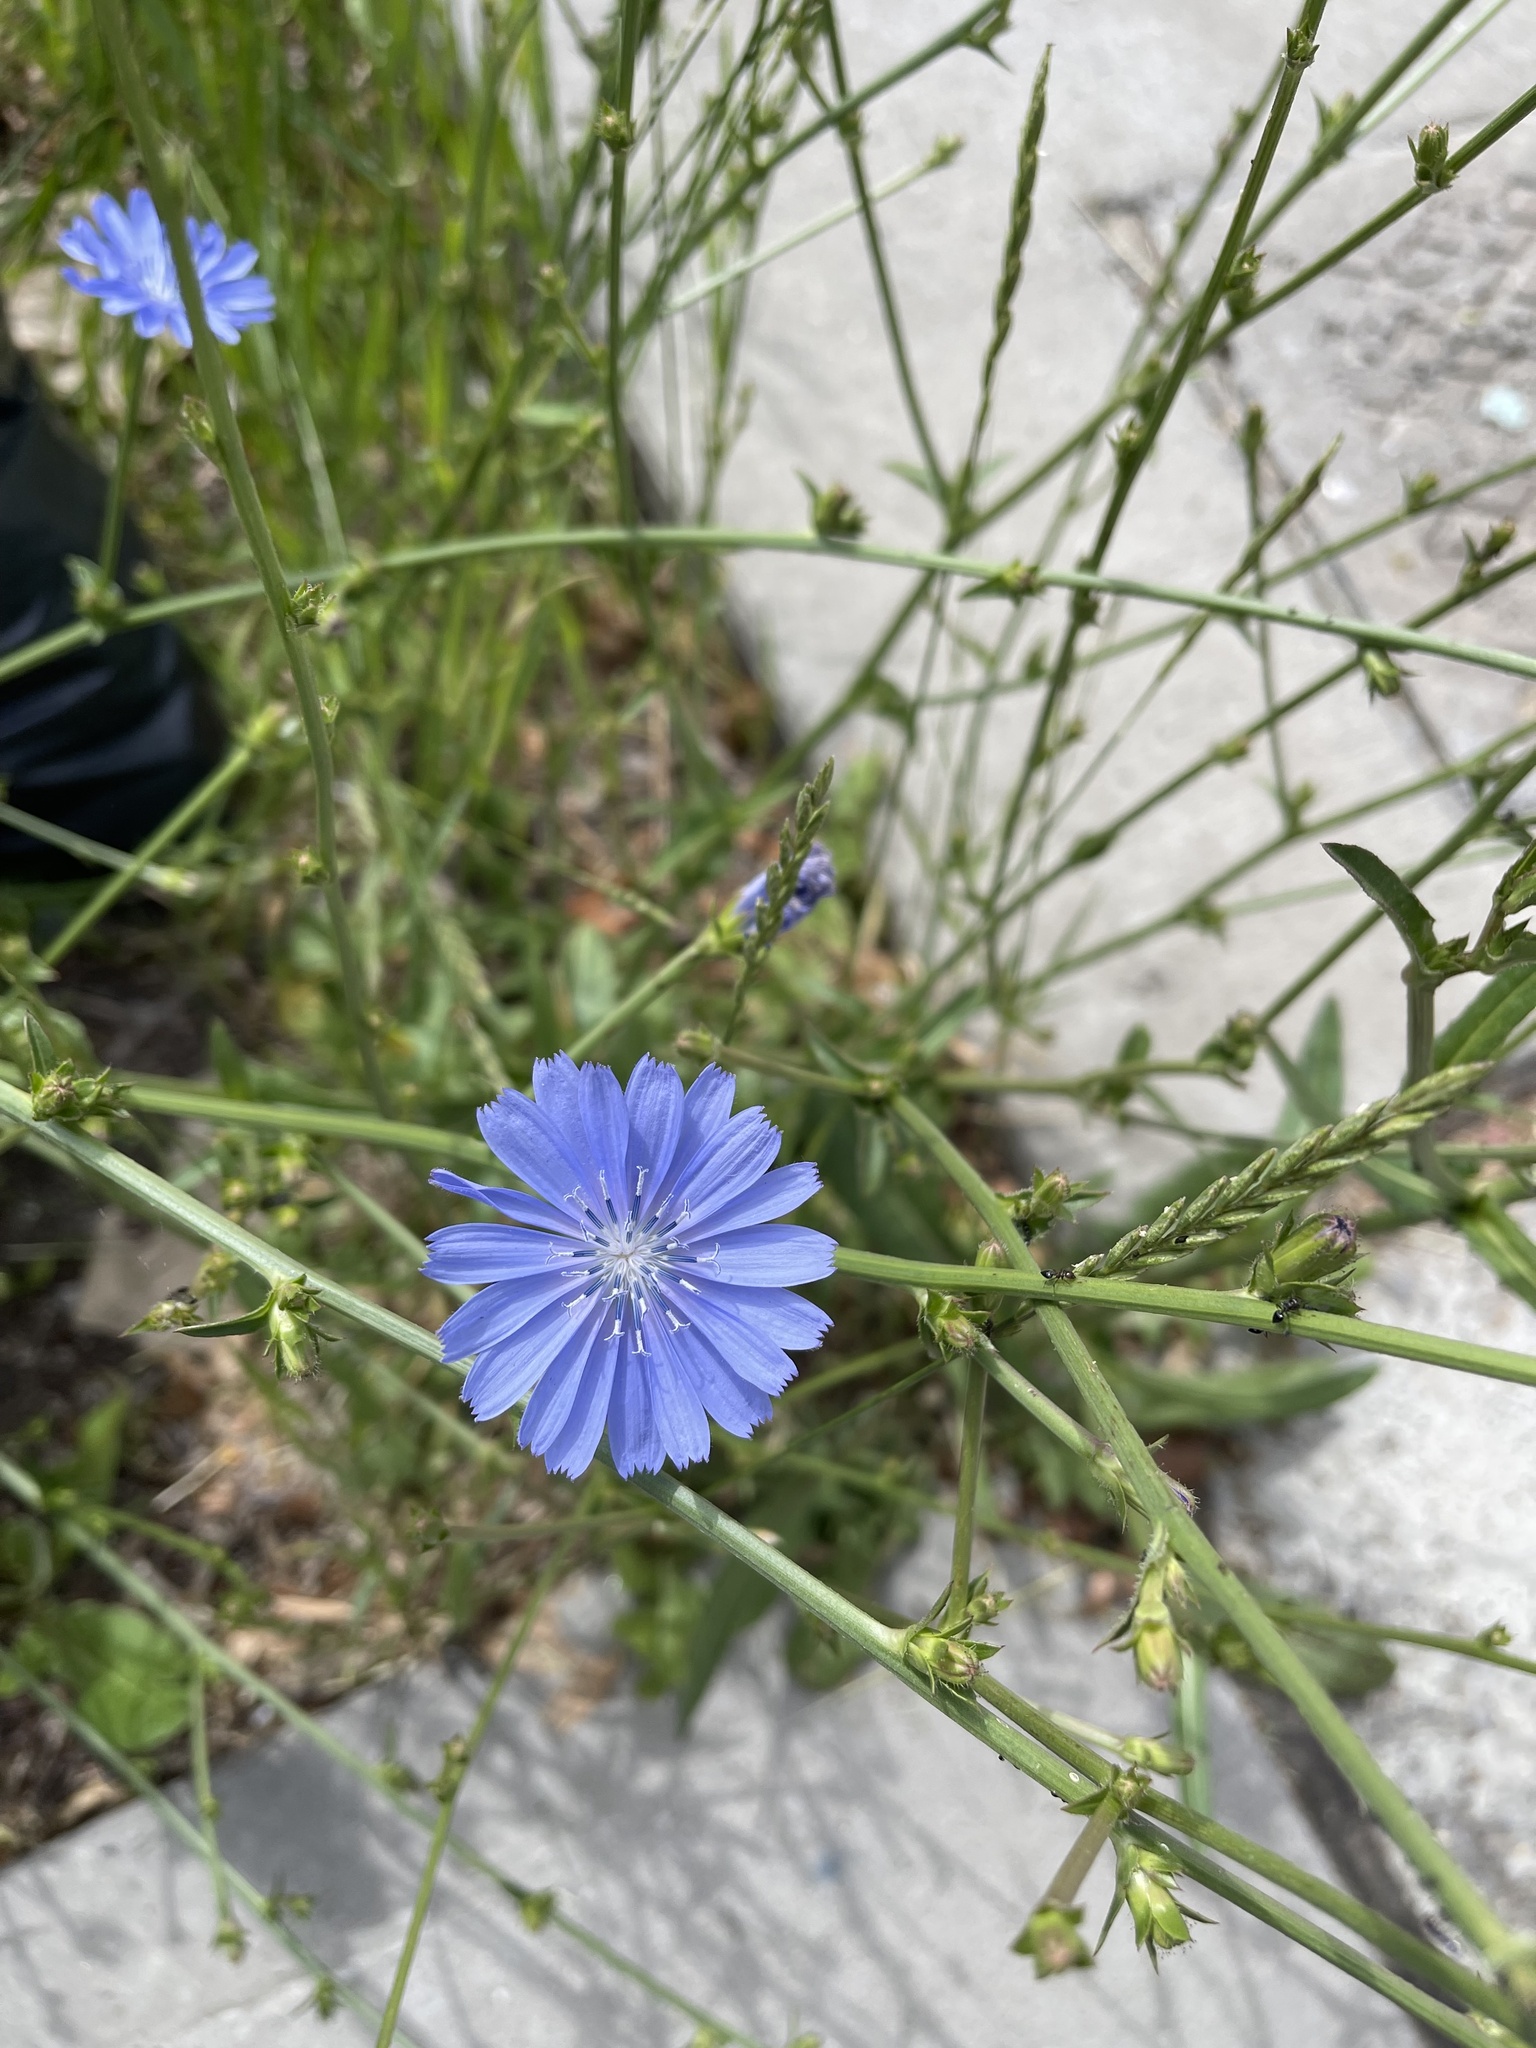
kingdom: Plantae
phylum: Tracheophyta
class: Magnoliopsida
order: Asterales
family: Asteraceae
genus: Cichorium
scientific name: Cichorium intybus
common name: Chicory
